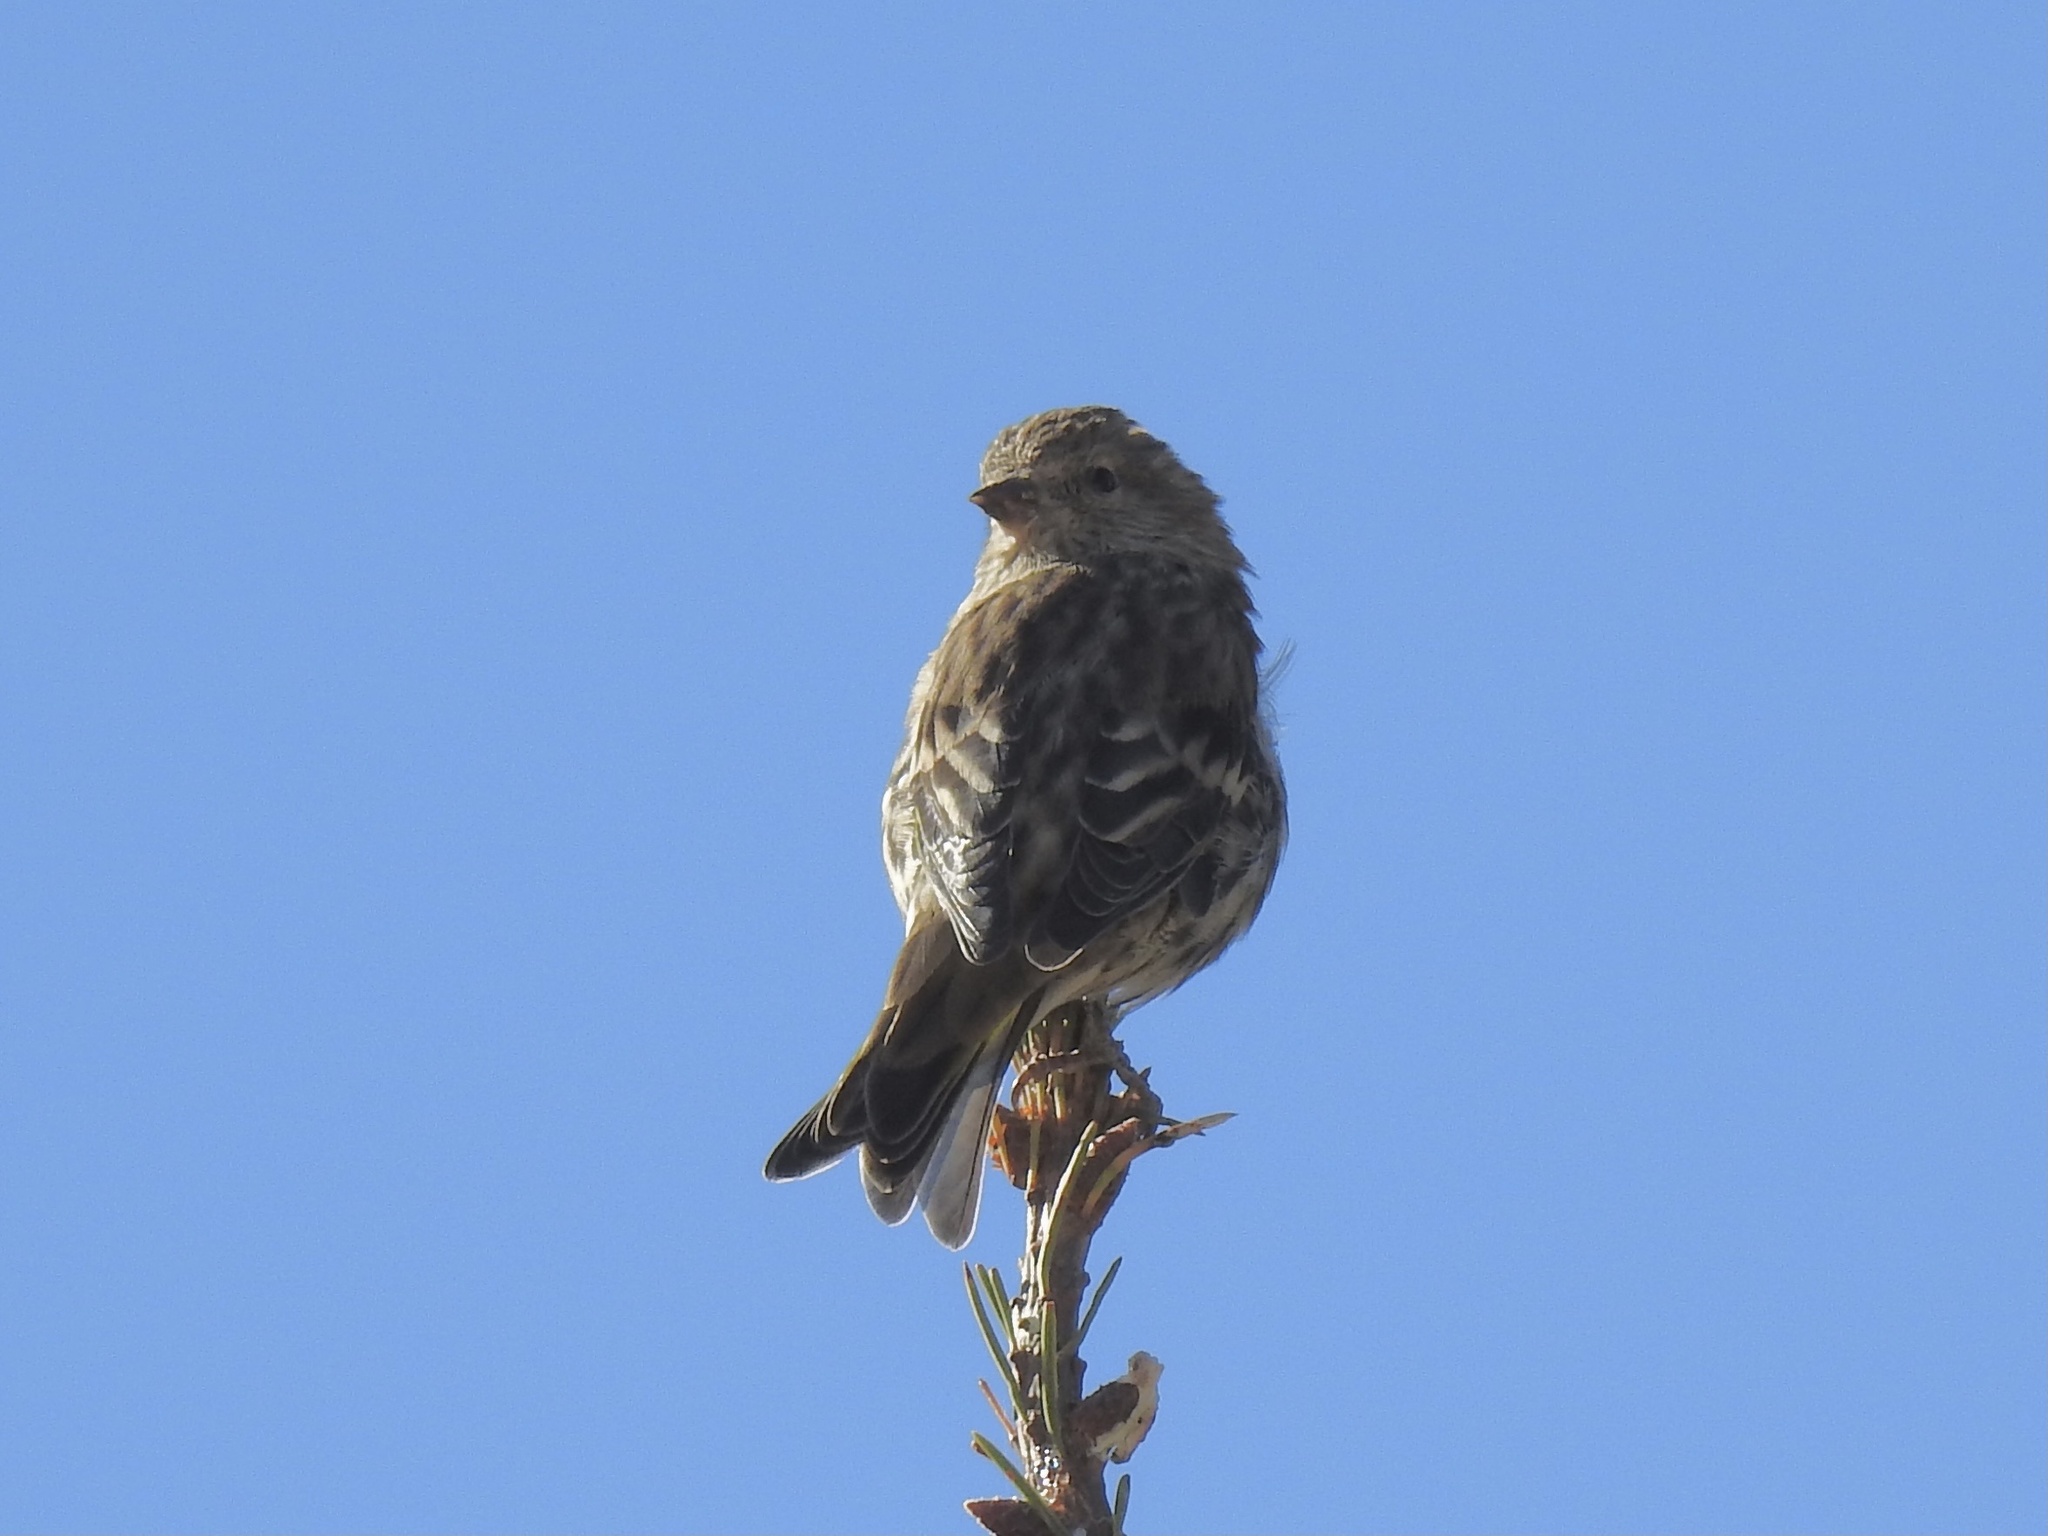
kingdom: Animalia
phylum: Chordata
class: Aves
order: Passeriformes
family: Fringillidae
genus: Spinus
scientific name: Spinus pinus
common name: Pine siskin
